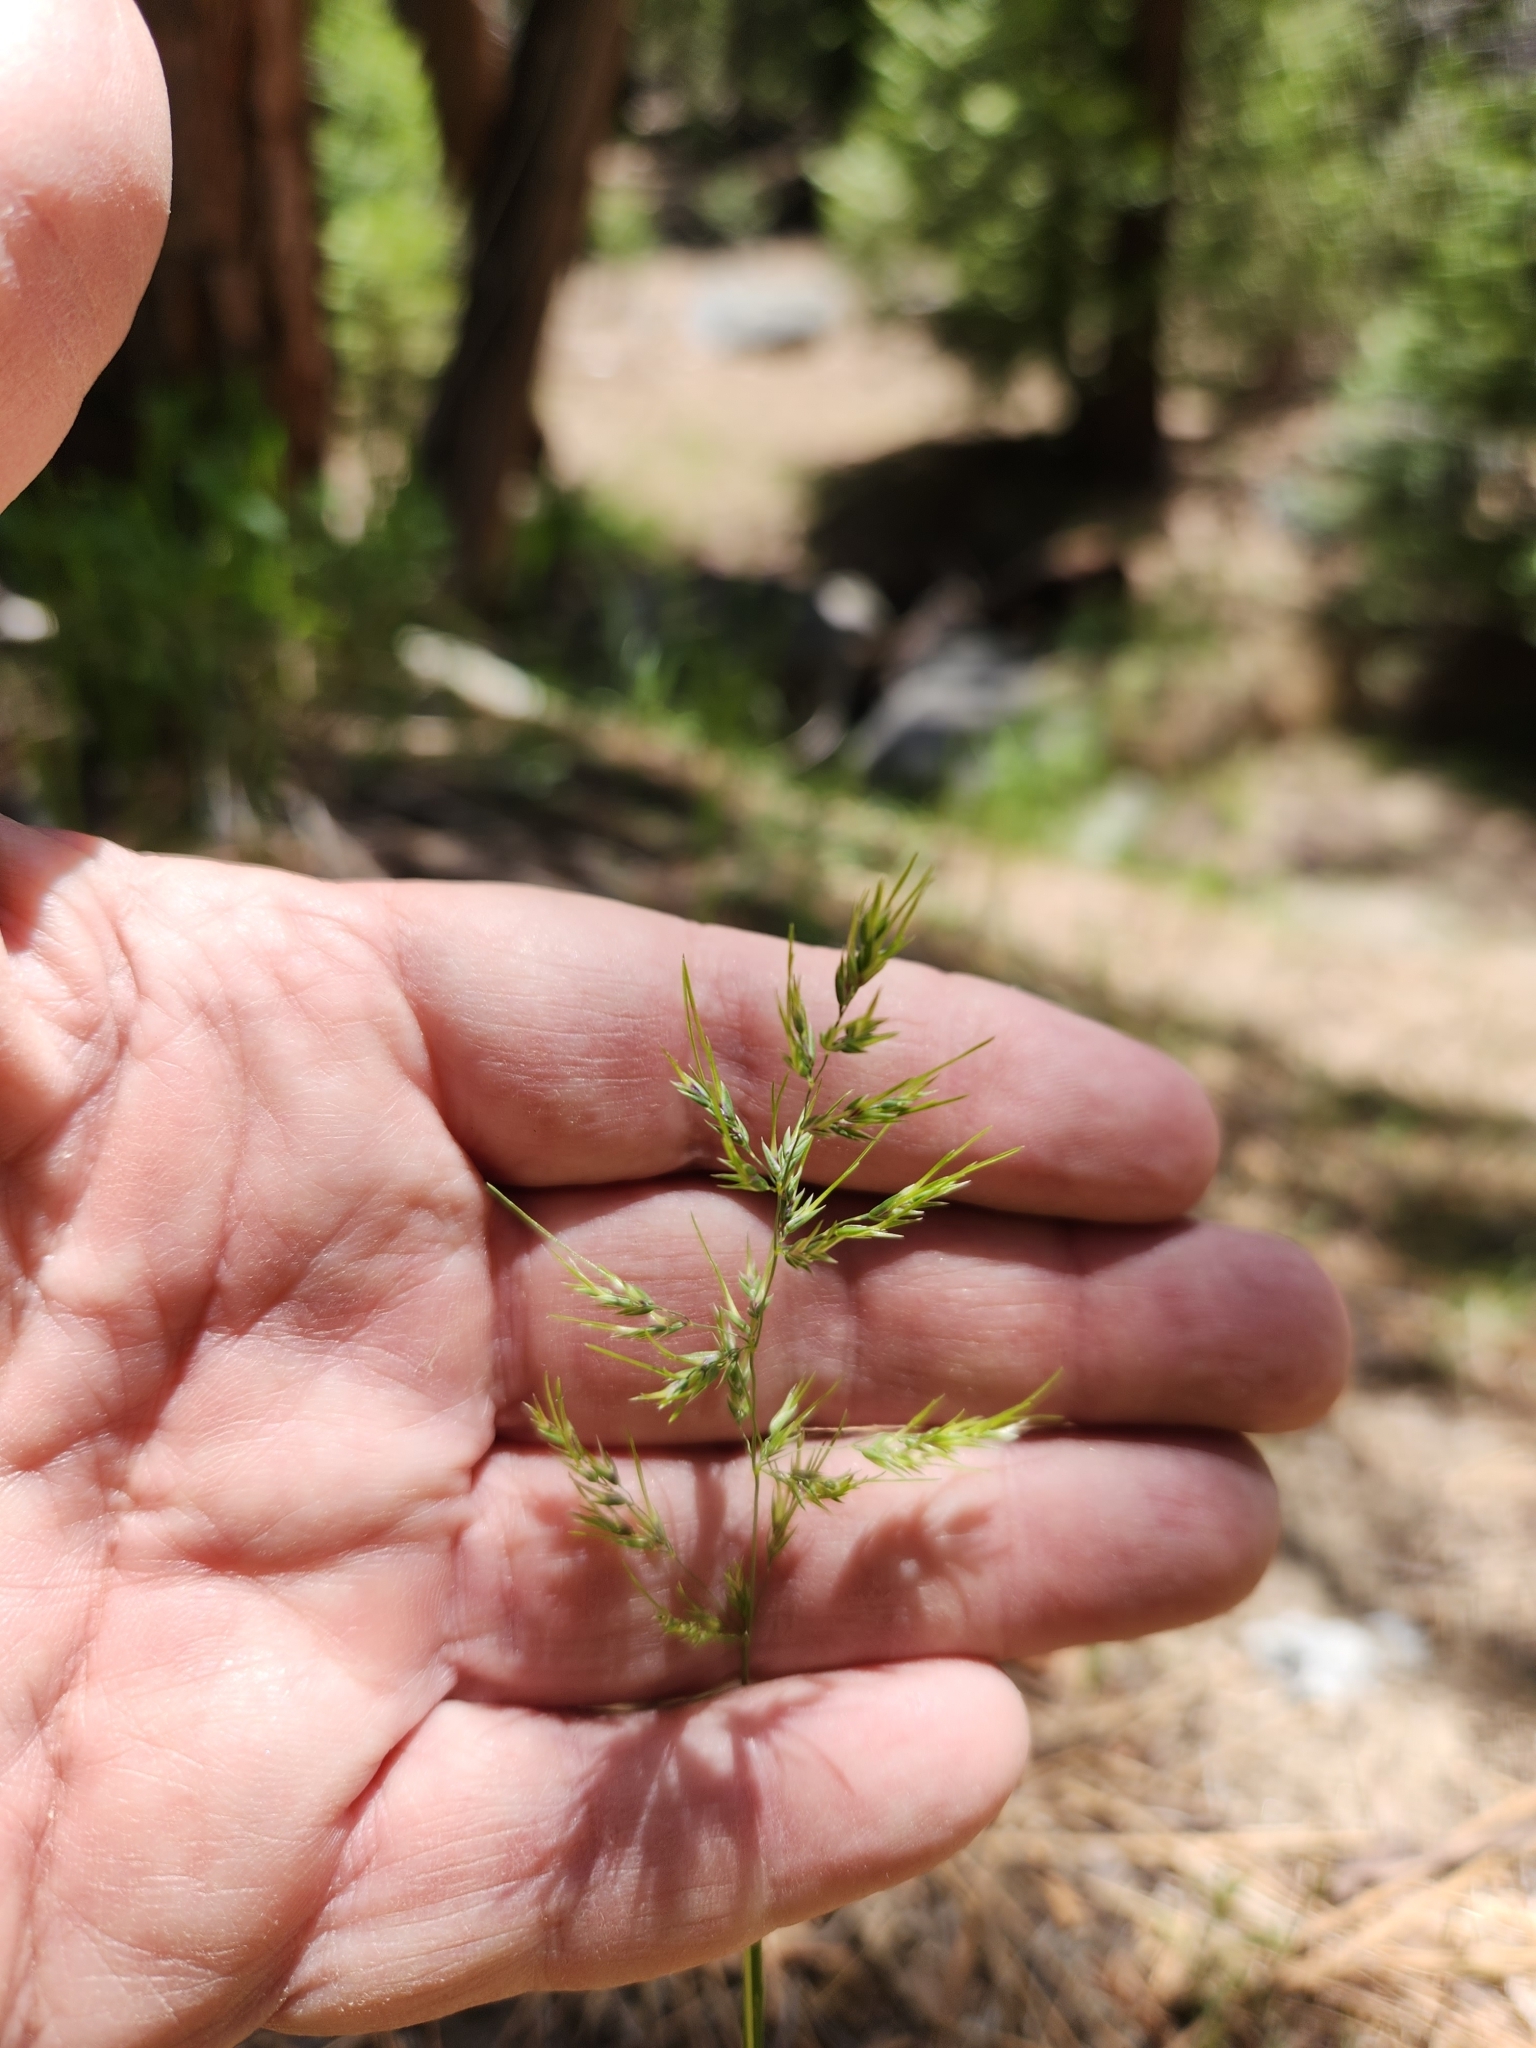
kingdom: Plantae
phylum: Tracheophyta
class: Liliopsida
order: Poales
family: Poaceae
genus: Poa
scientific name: Poa bulbosa
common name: Bulbous bluegrass
